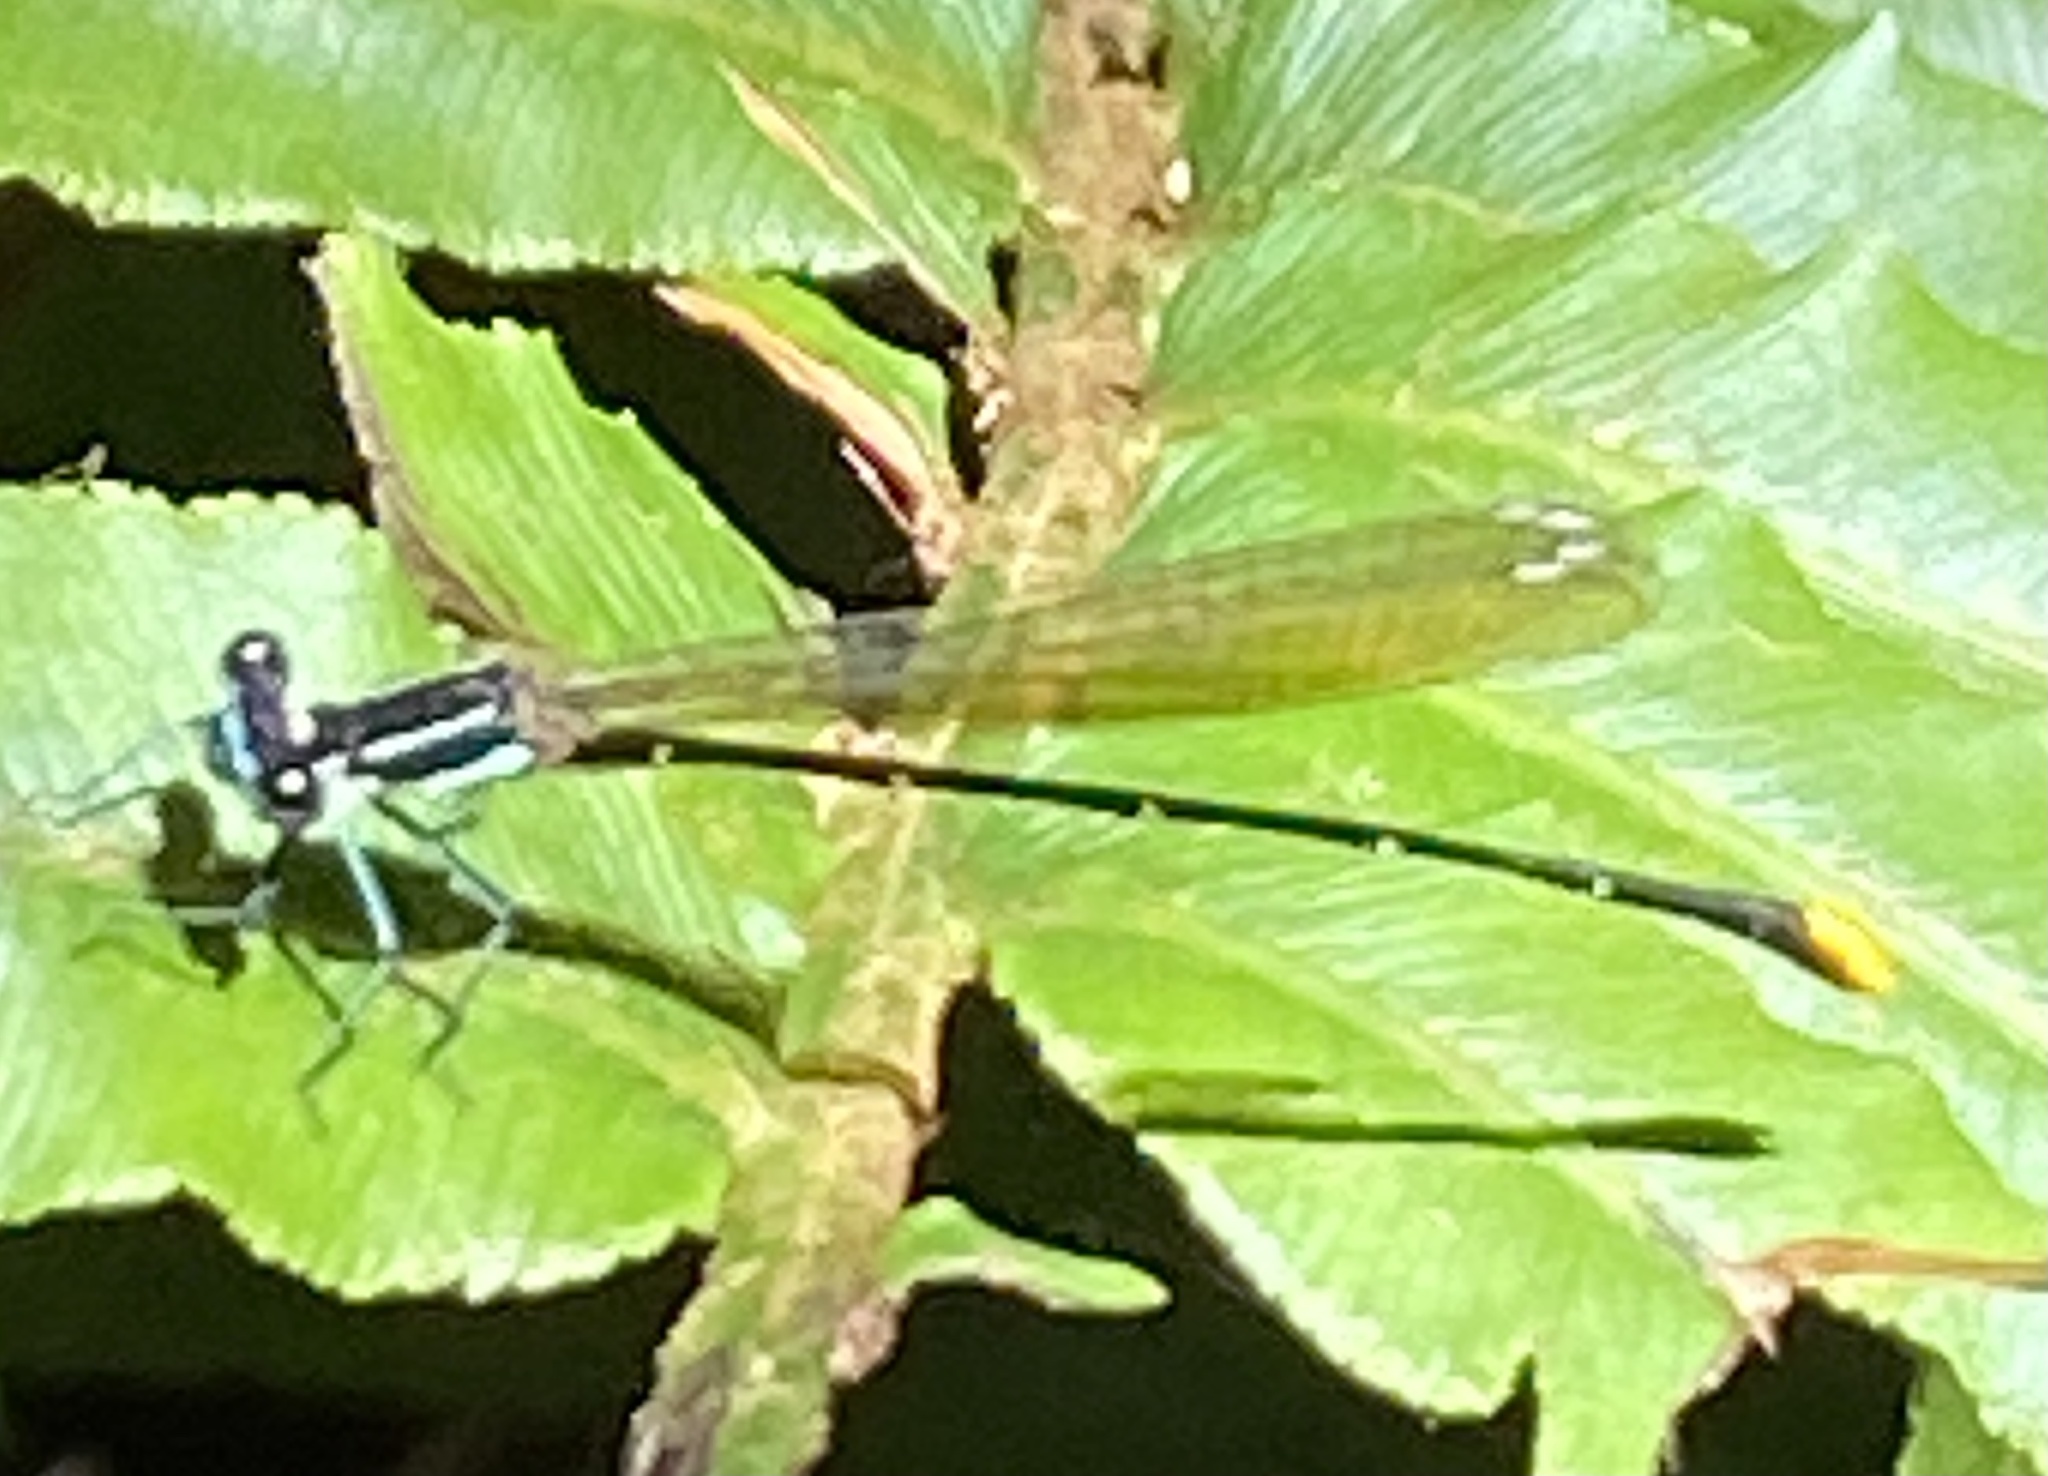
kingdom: Animalia
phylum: Arthropoda
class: Insecta
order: Odonata
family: Platycnemididae
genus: Allocnemis
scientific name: Allocnemis leucosticta
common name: Goldtail
